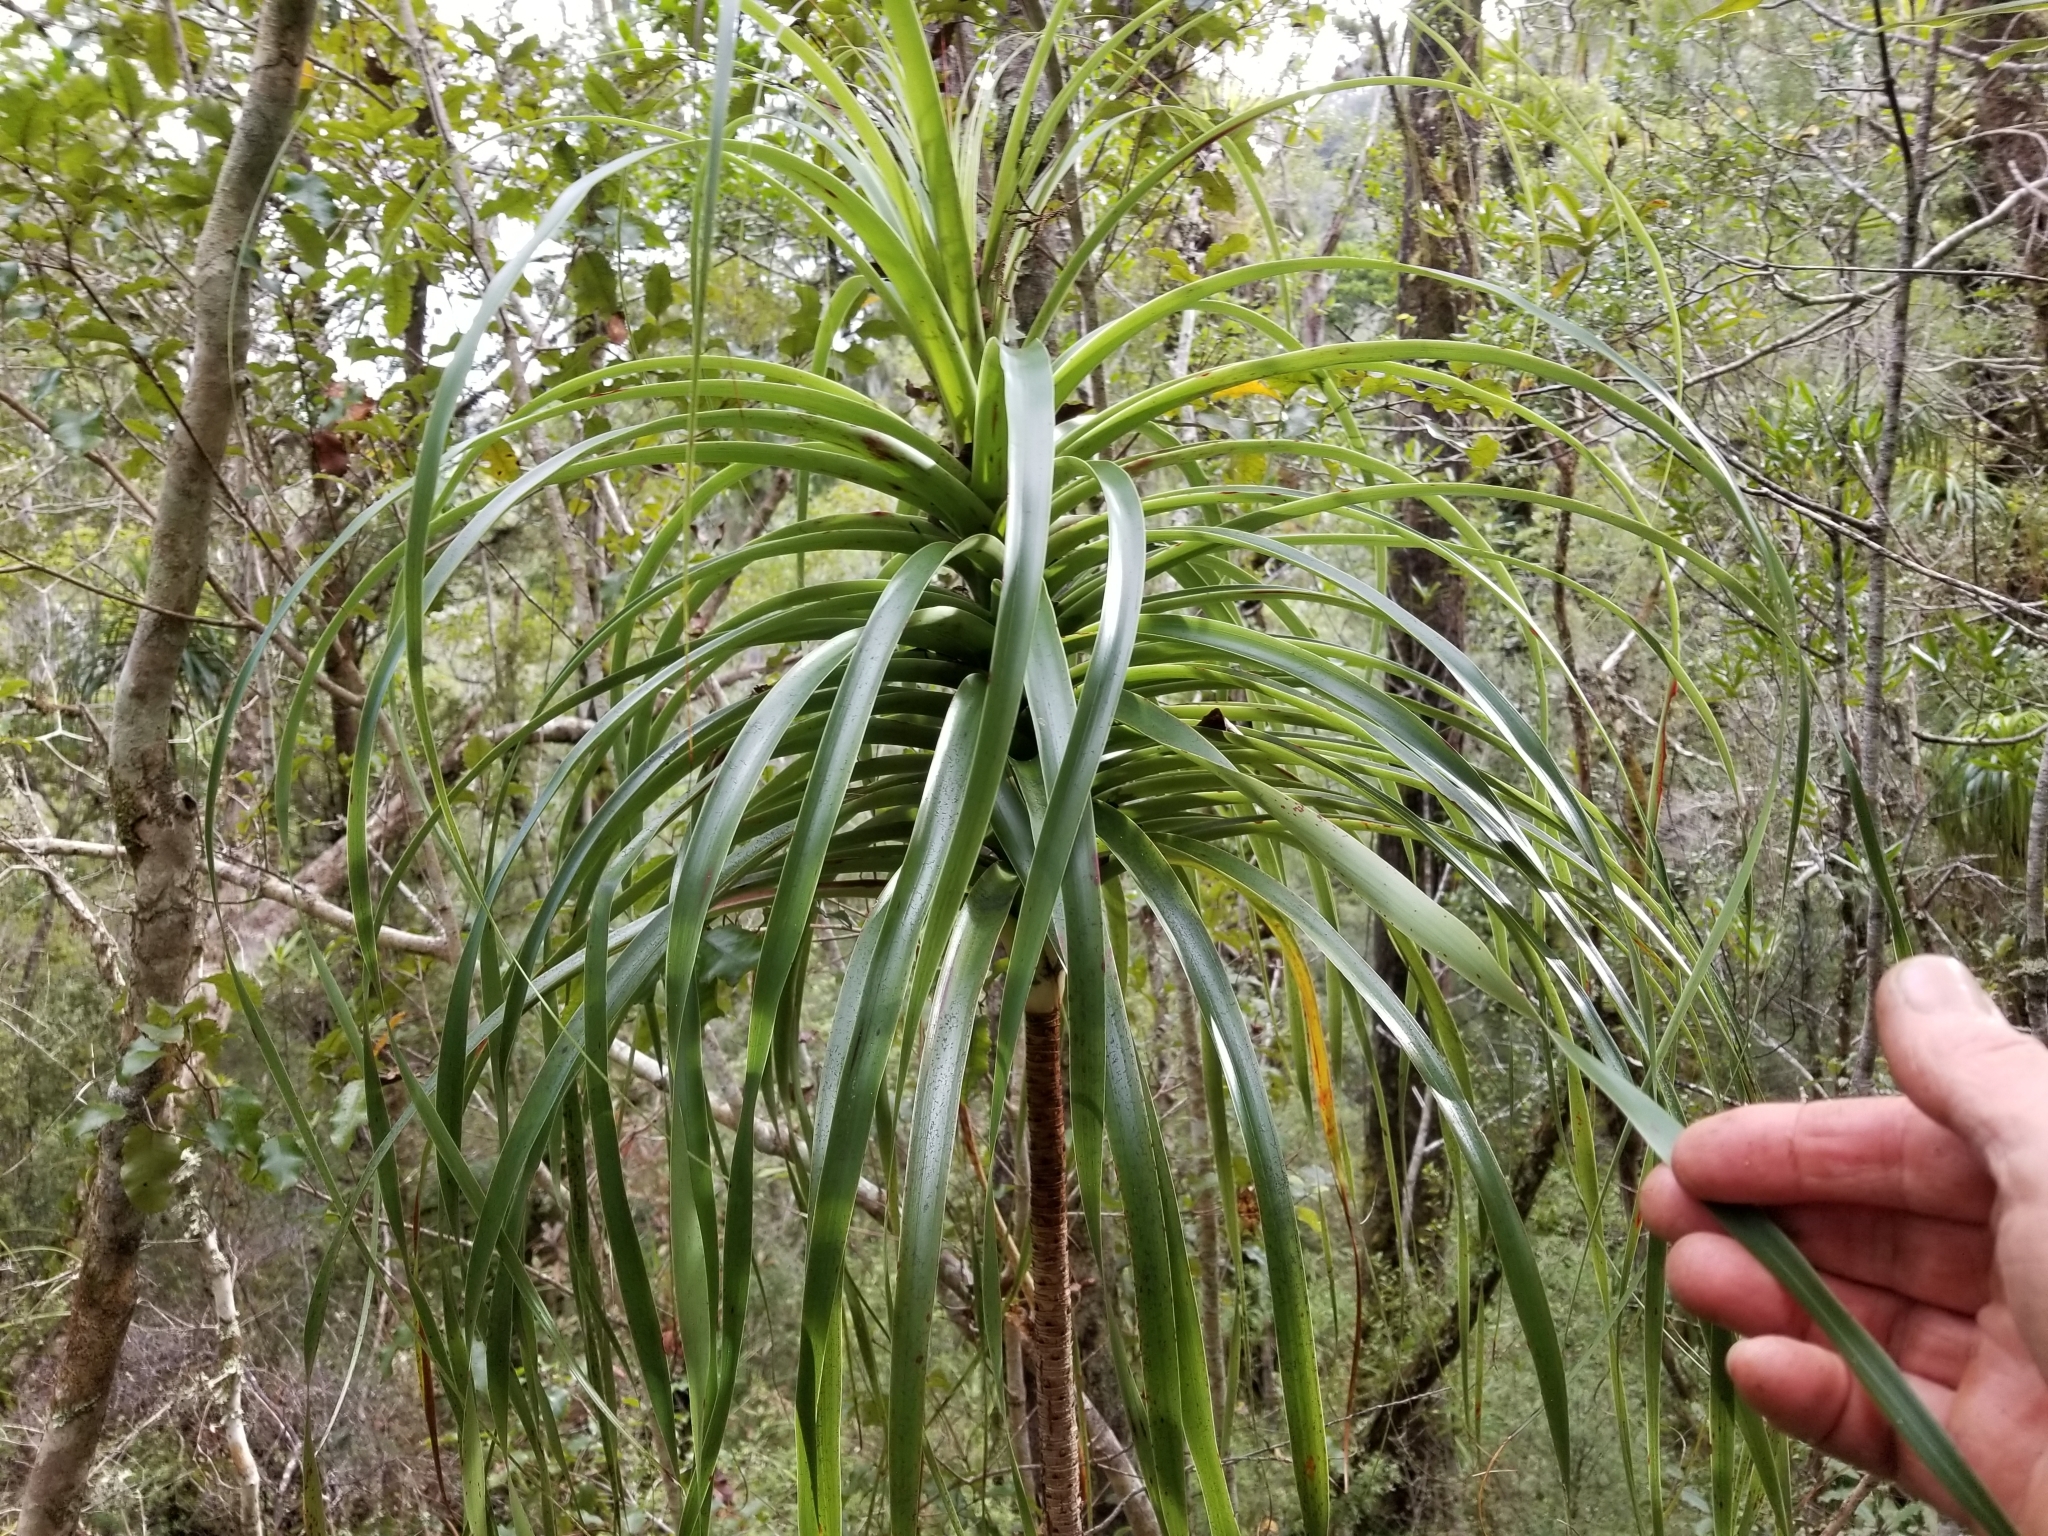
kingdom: Plantae
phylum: Tracheophyta
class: Magnoliopsida
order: Ericales
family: Ericaceae
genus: Dracophyllum
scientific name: Dracophyllum elegantissimum
